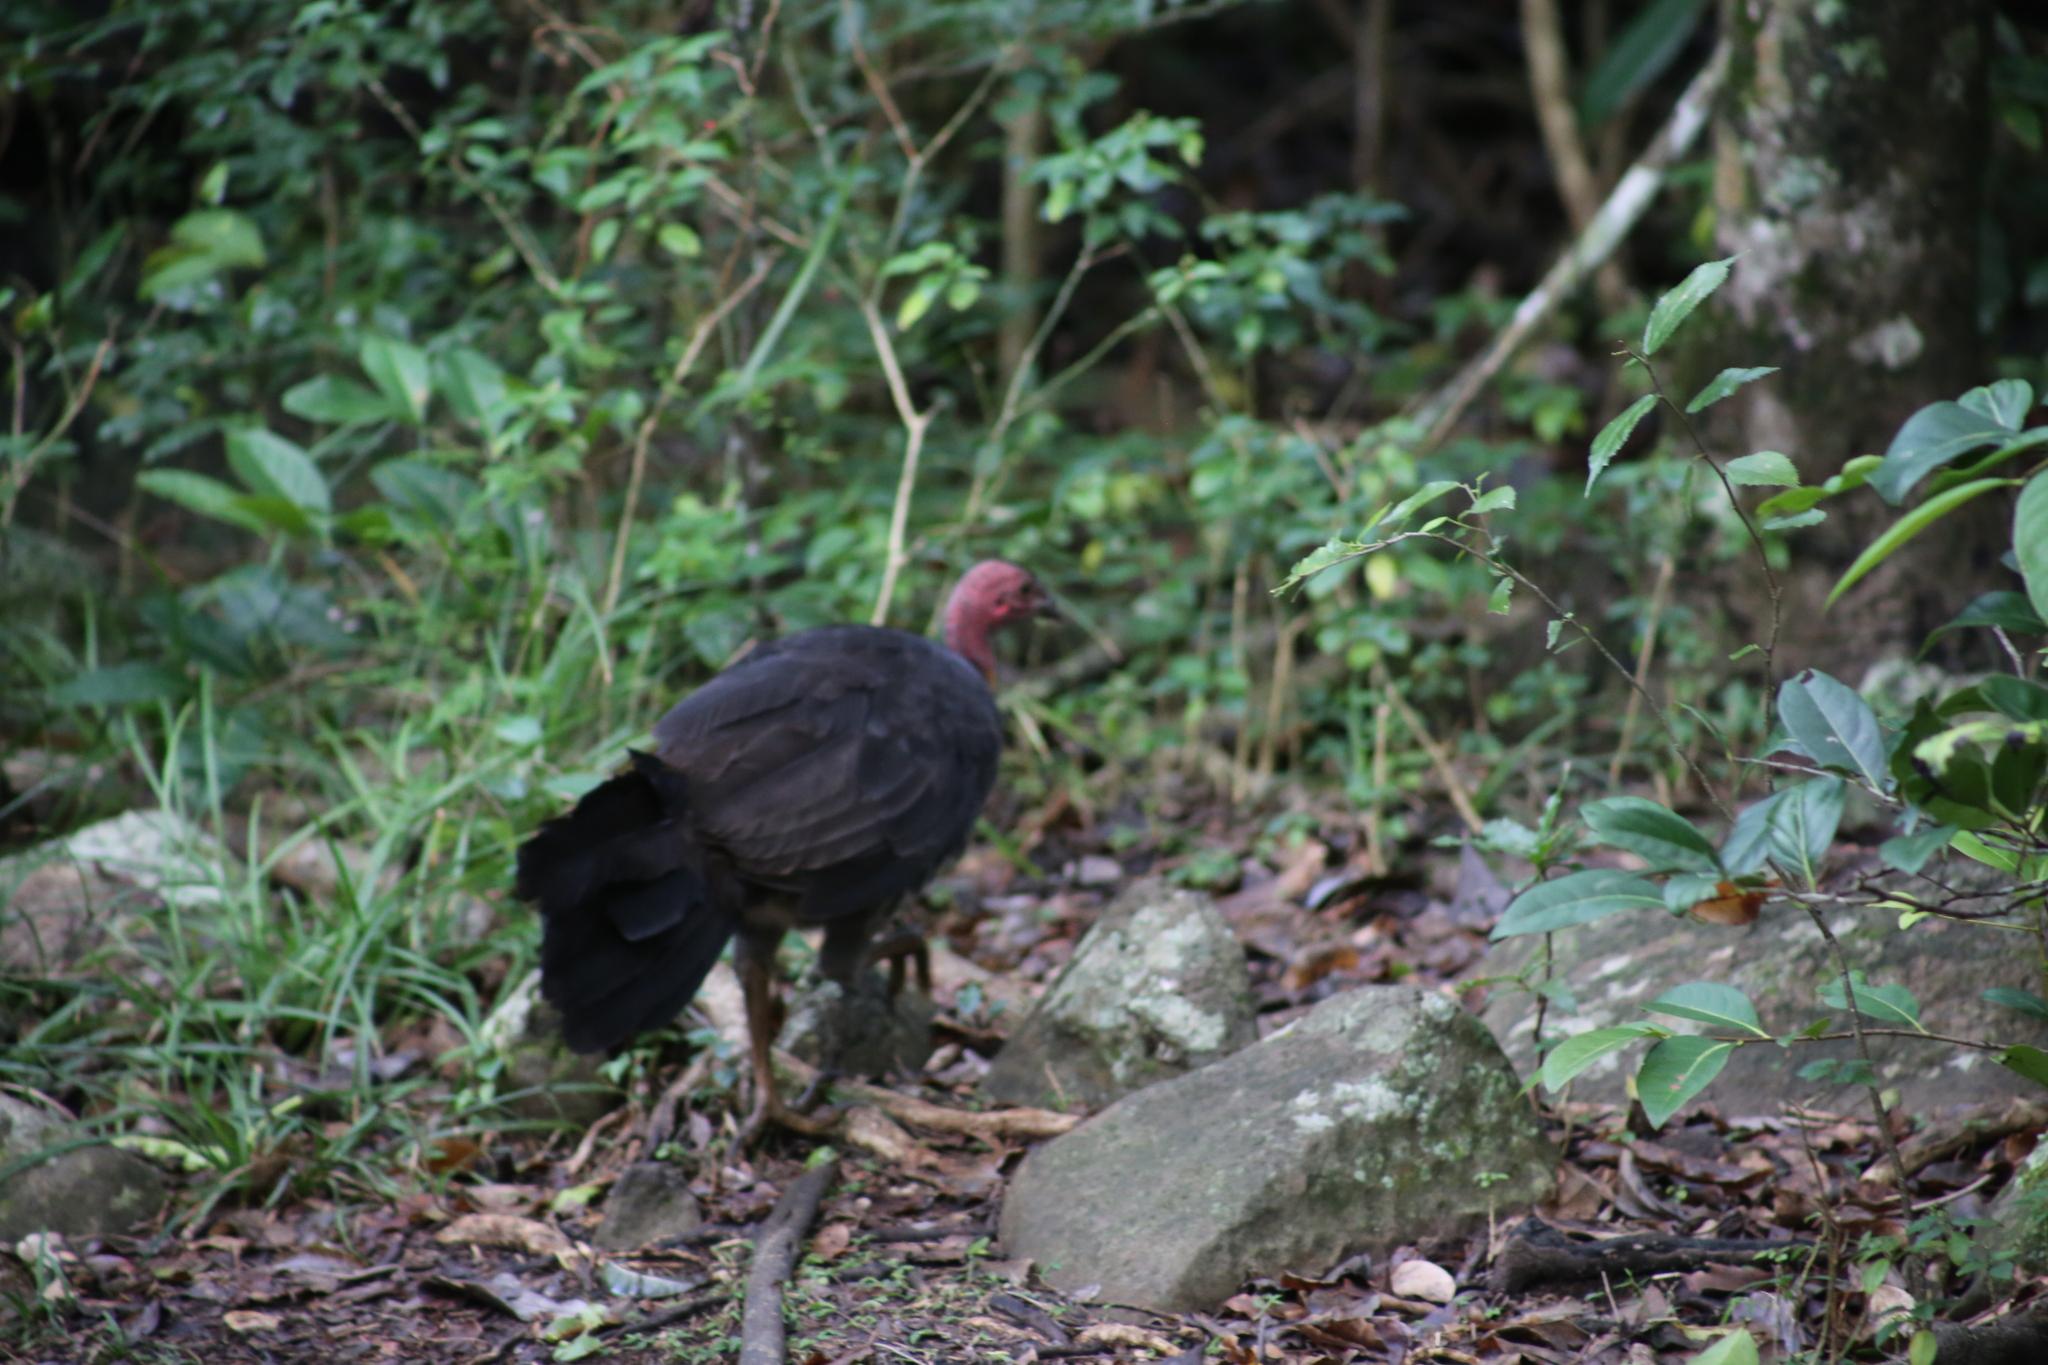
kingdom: Animalia
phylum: Chordata
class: Aves
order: Galliformes
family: Megapodiidae
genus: Alectura
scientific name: Alectura lathami
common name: Australian brushturkey
